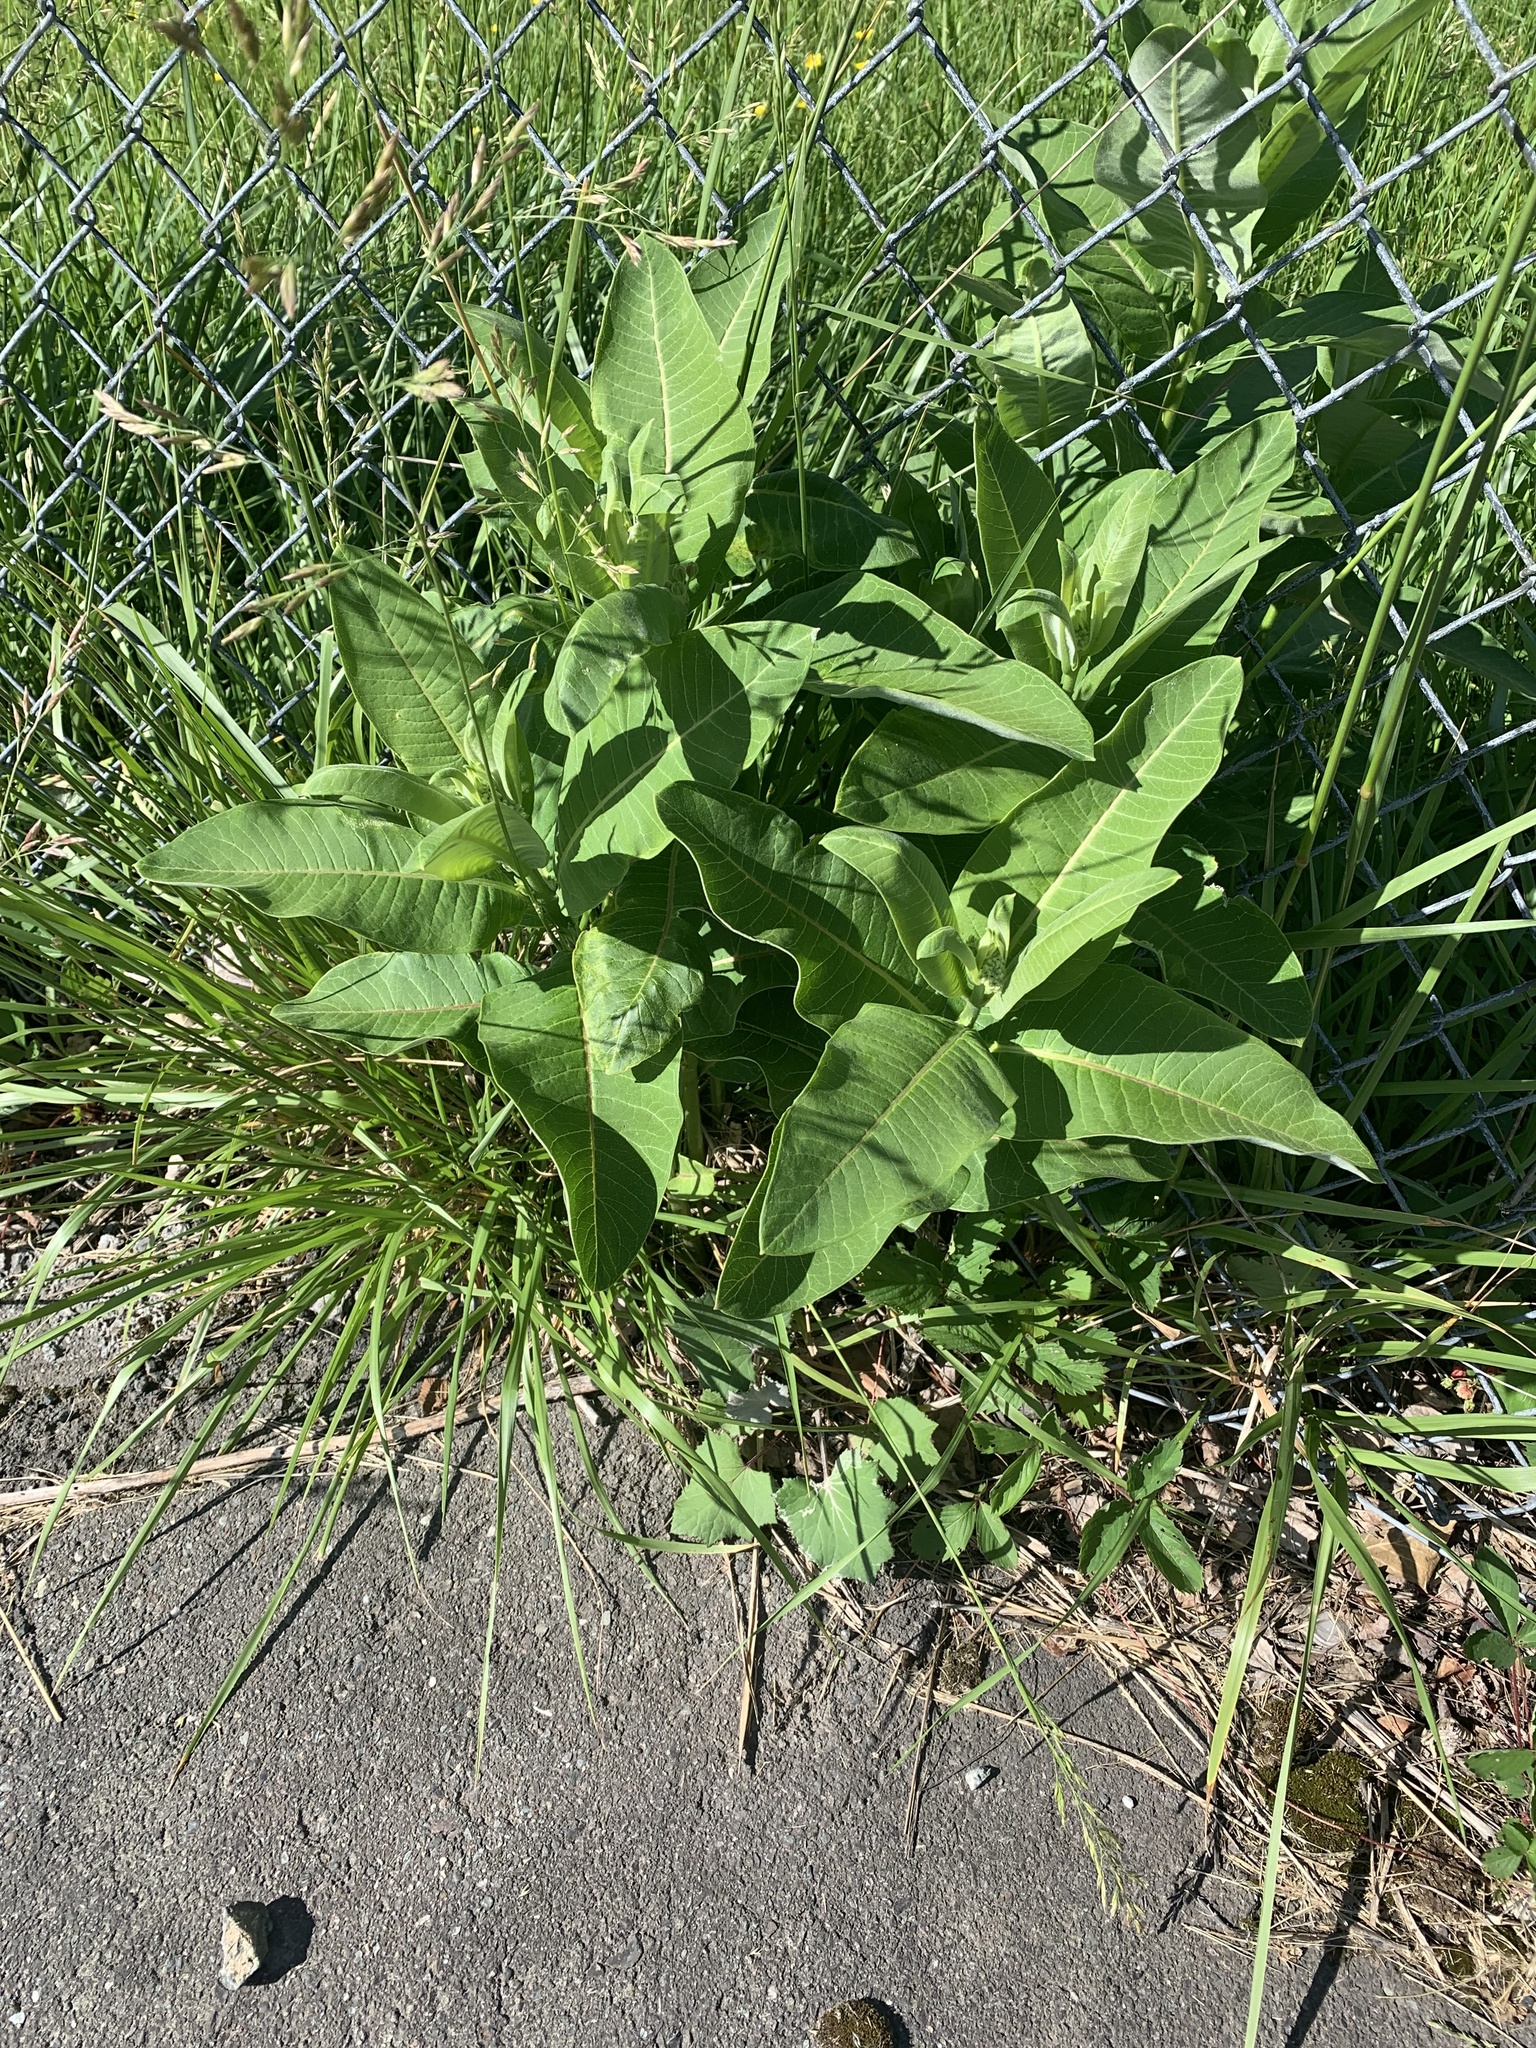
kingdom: Plantae
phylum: Tracheophyta
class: Magnoliopsida
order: Gentianales
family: Apocynaceae
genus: Asclepias
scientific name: Asclepias syriaca
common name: Common milkweed
